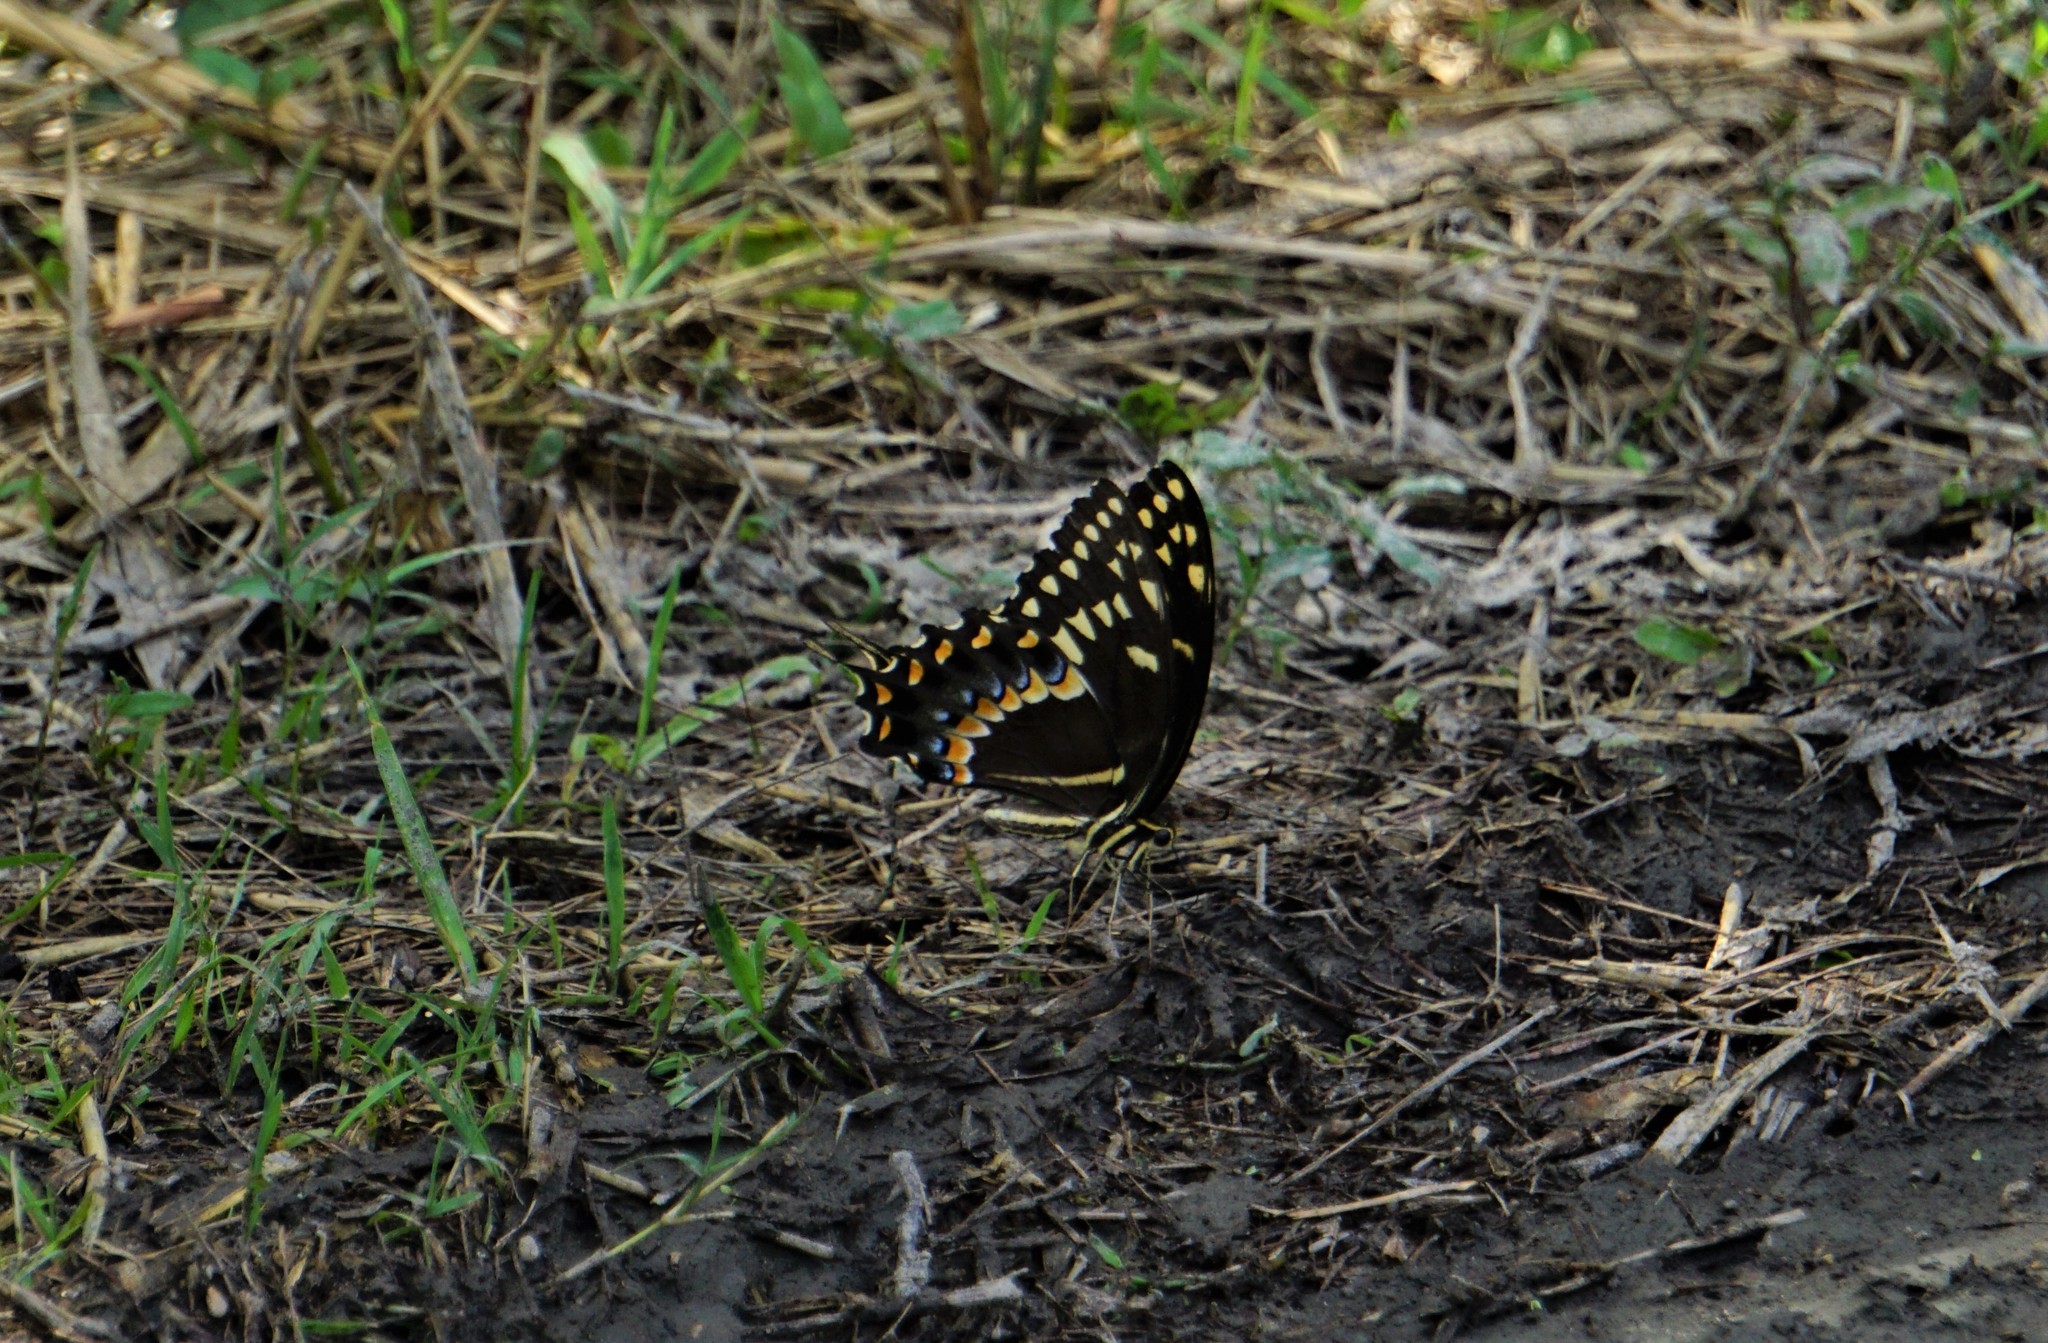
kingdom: Animalia
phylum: Arthropoda
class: Insecta
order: Lepidoptera
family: Papilionidae
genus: Papilio
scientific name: Papilio palamedes
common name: Palamedes swallowtail
